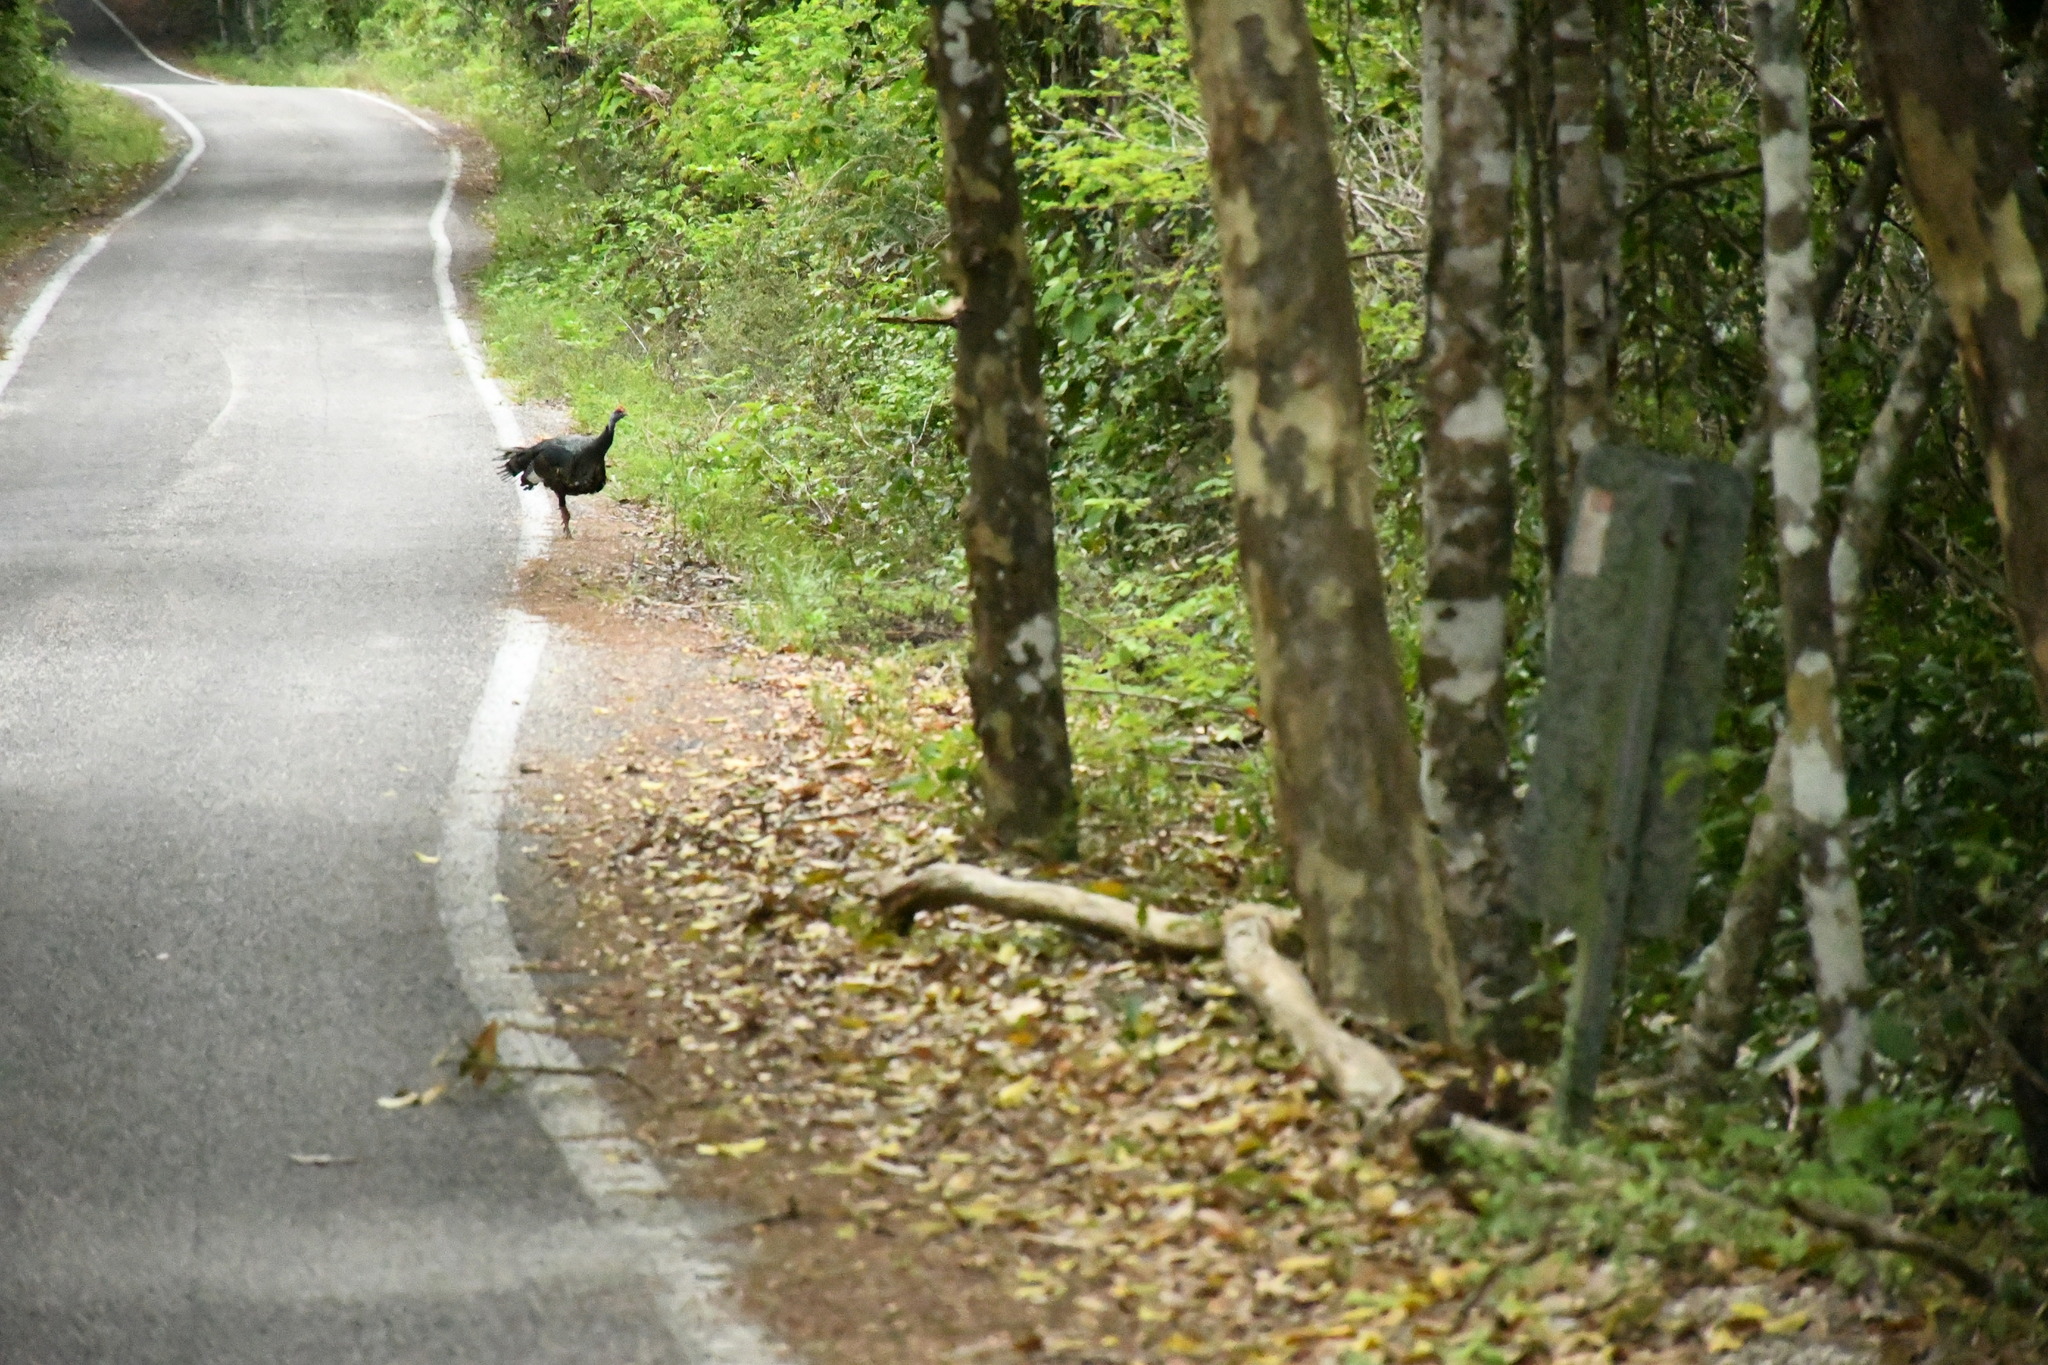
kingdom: Animalia
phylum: Chordata
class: Aves
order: Galliformes
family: Phasianidae
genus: Meleagris
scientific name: Meleagris ocellata
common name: Ocellated turkey
